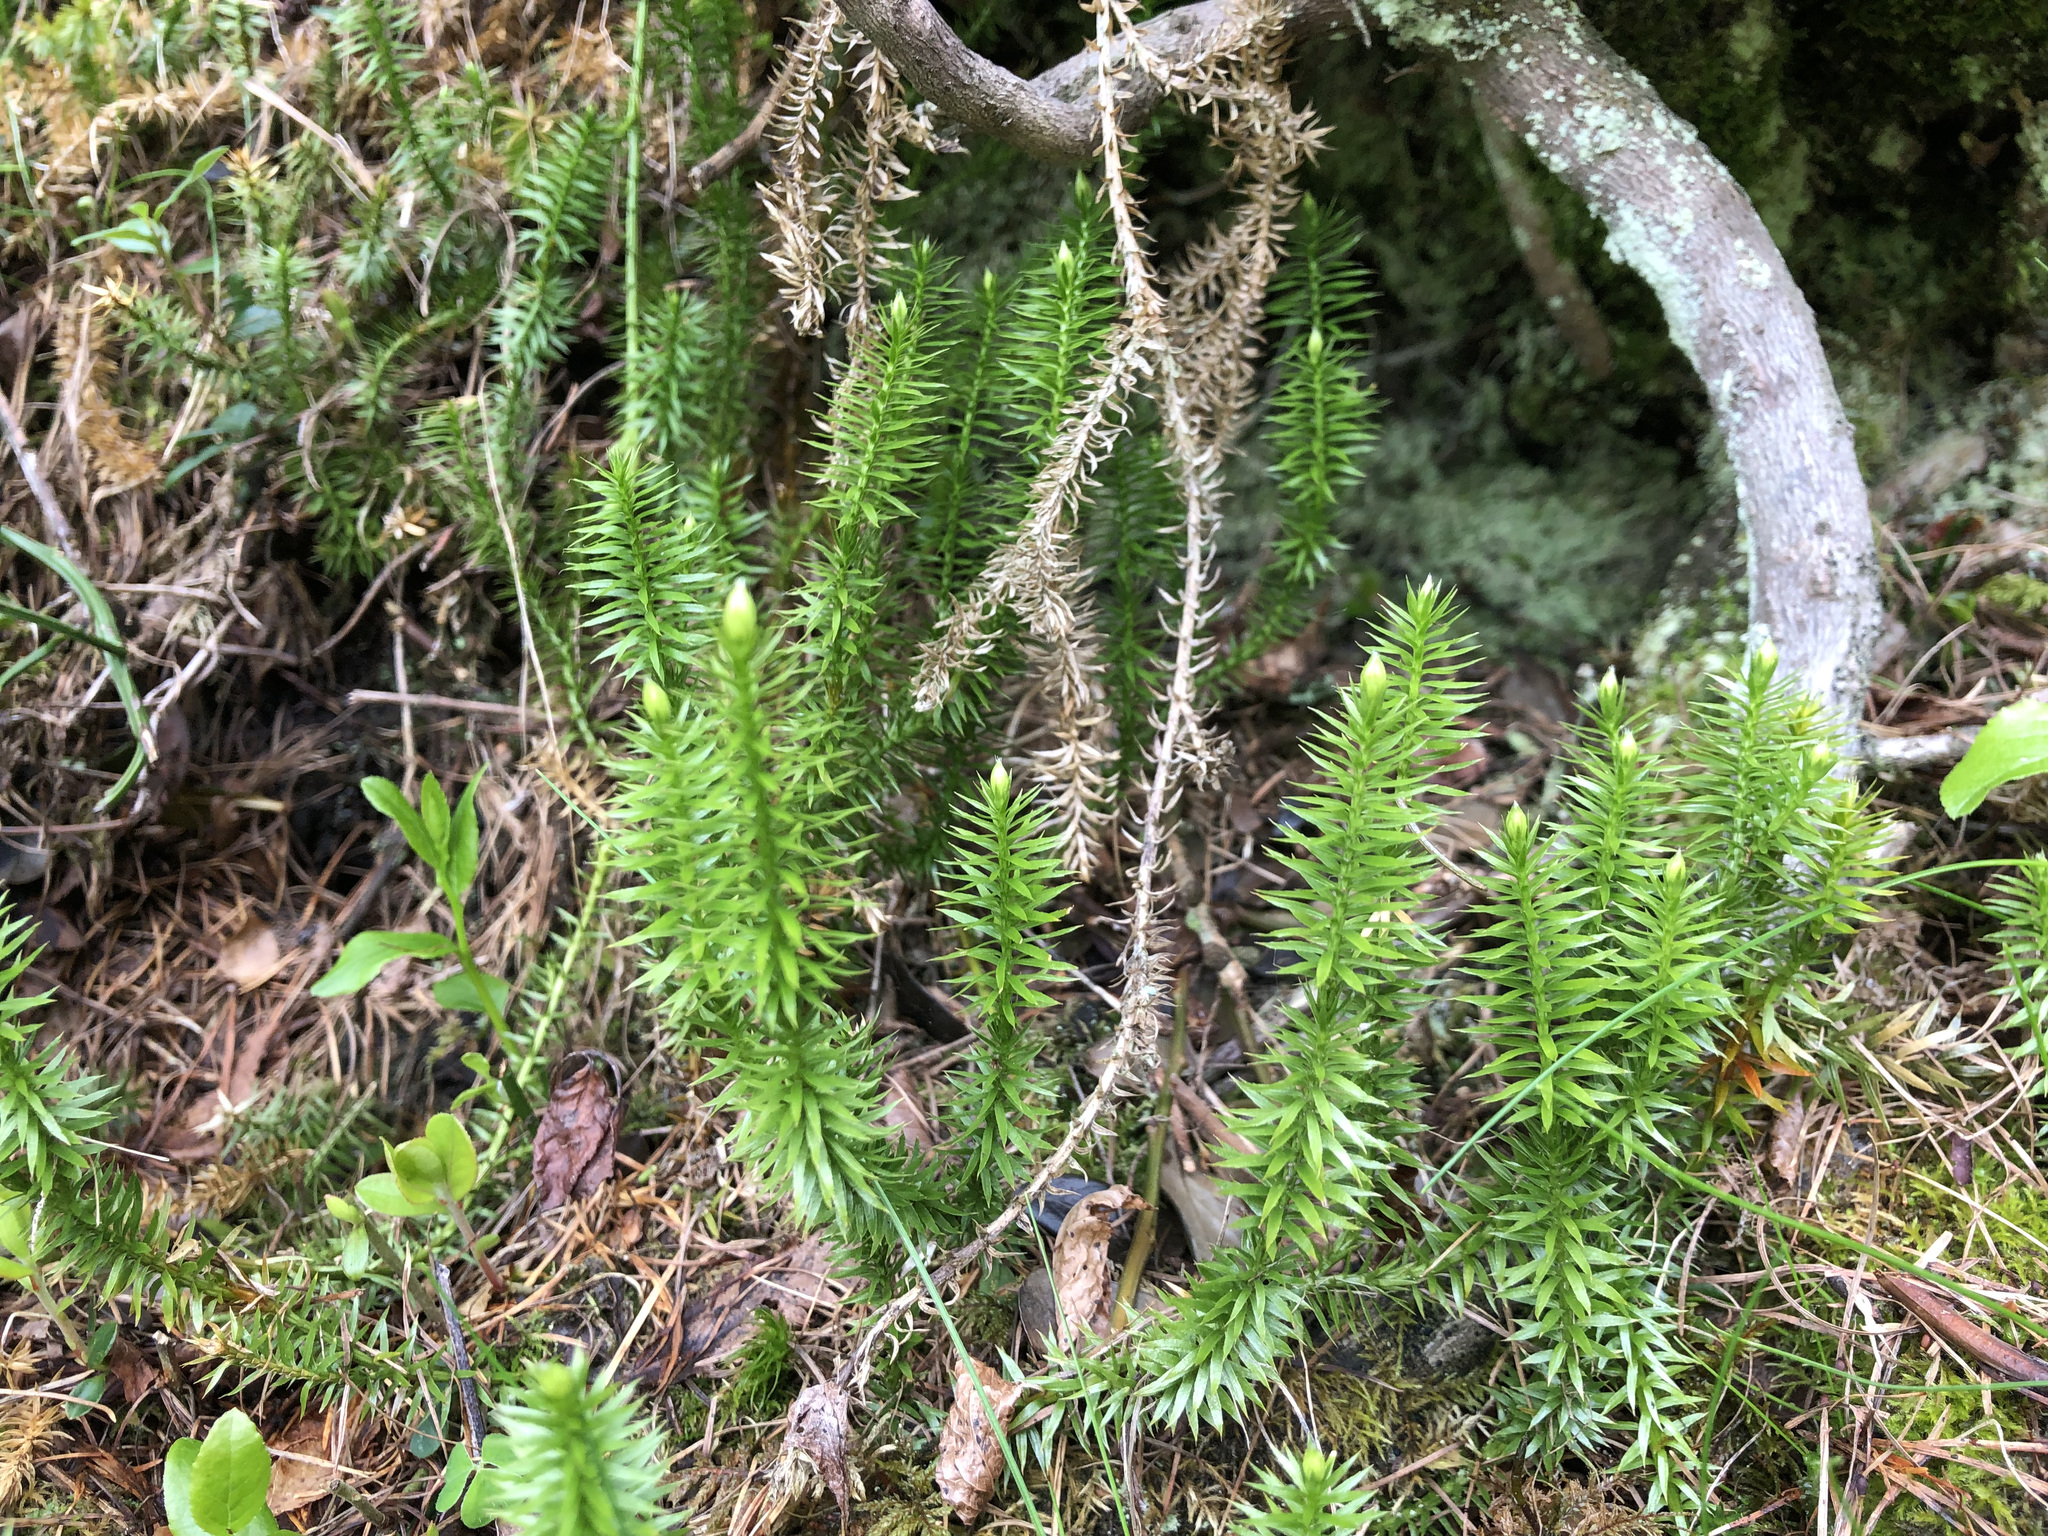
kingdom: Plantae
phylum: Tracheophyta
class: Lycopodiopsida
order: Lycopodiales
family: Lycopodiaceae
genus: Spinulum
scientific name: Spinulum annotinum
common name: Interrupted club-moss
